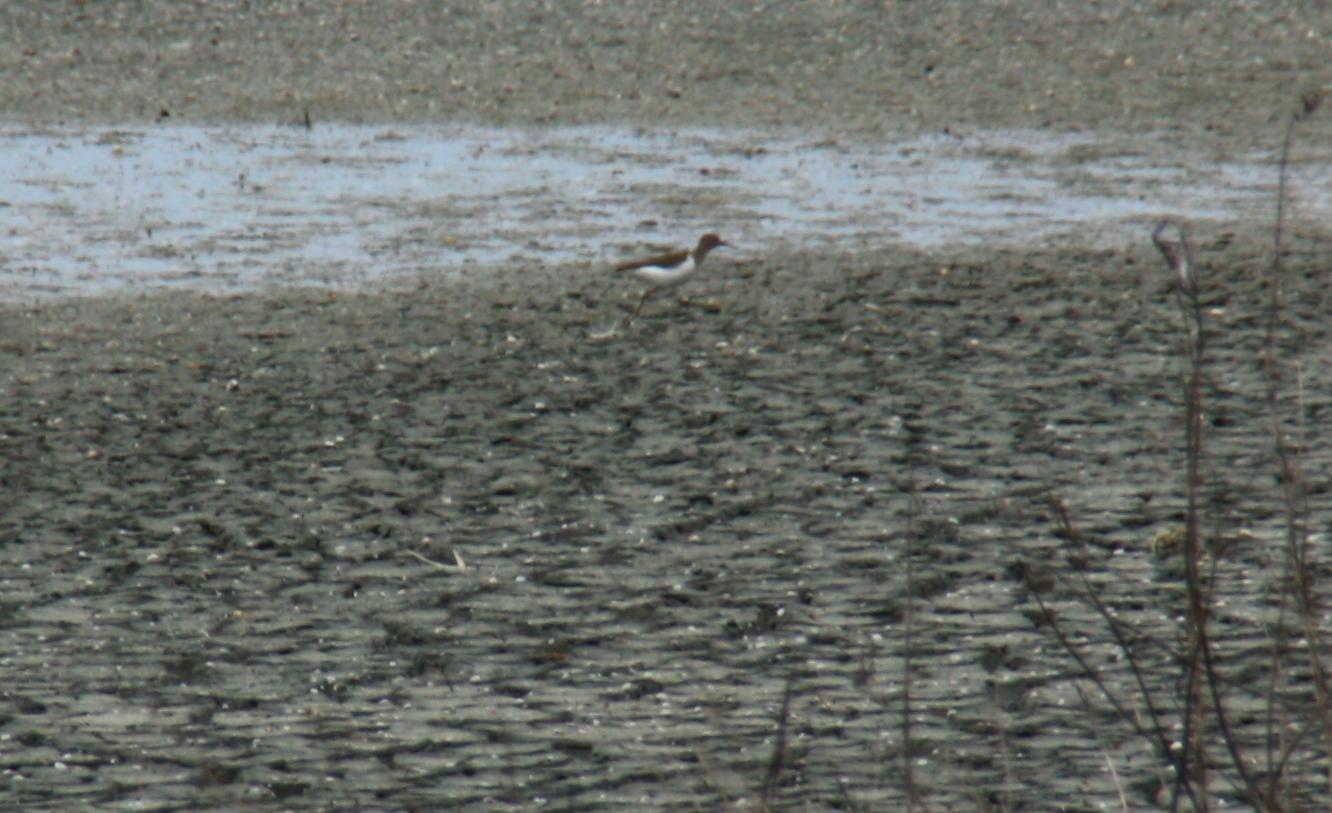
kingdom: Animalia
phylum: Chordata
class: Aves
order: Charadriiformes
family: Scolopacidae
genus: Actitis
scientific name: Actitis hypoleucos
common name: Common sandpiper
